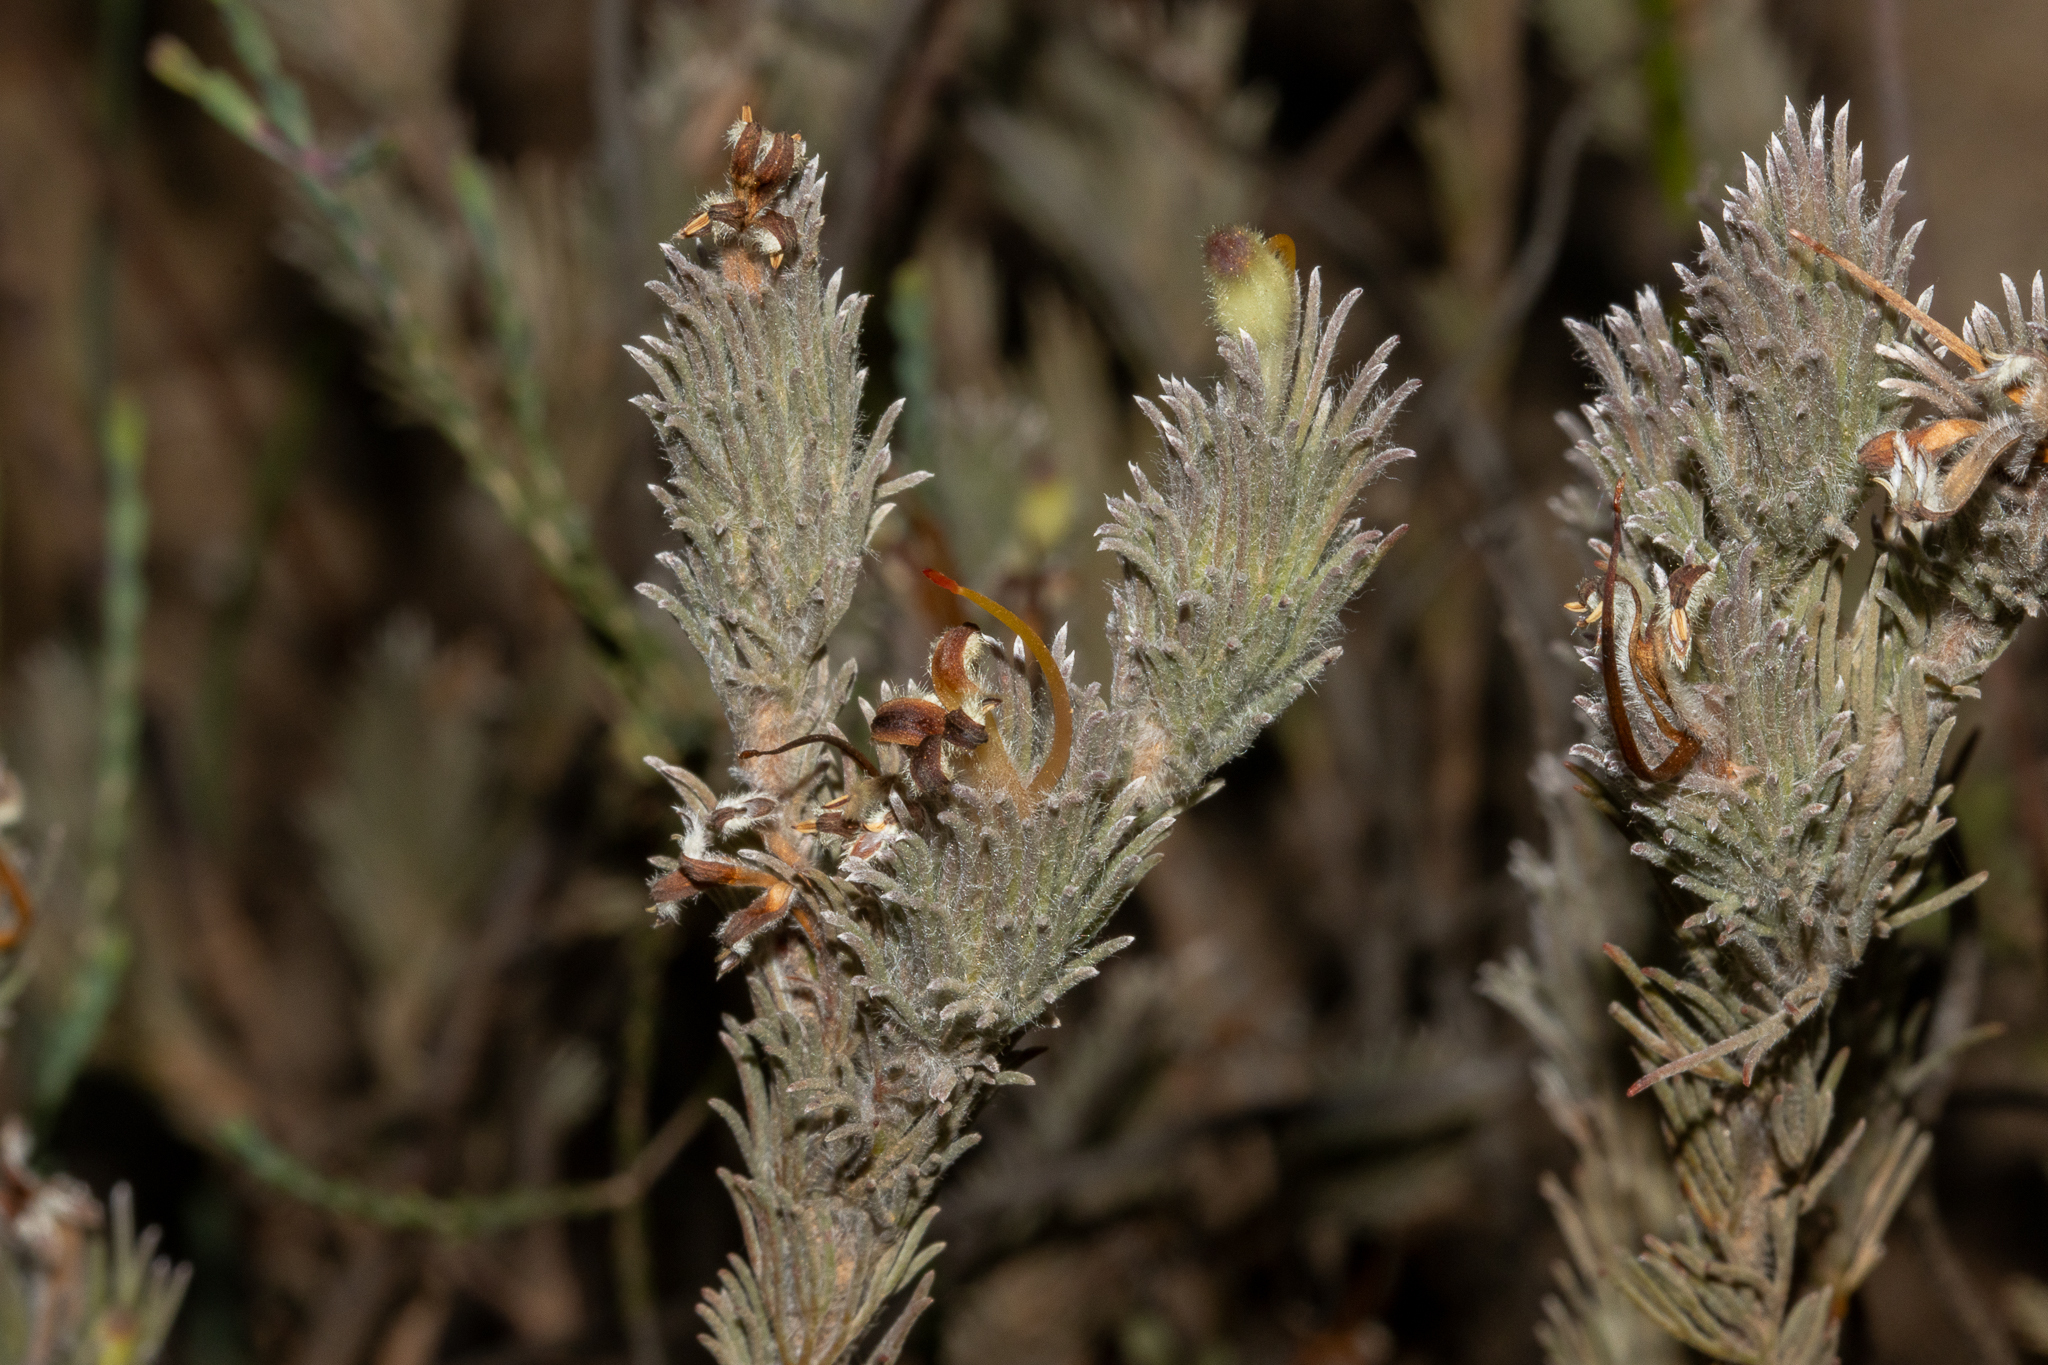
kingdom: Plantae
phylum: Tracheophyta
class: Magnoliopsida
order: Proteales
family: Proteaceae
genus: Adenanthos
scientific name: Adenanthos macropodianus
